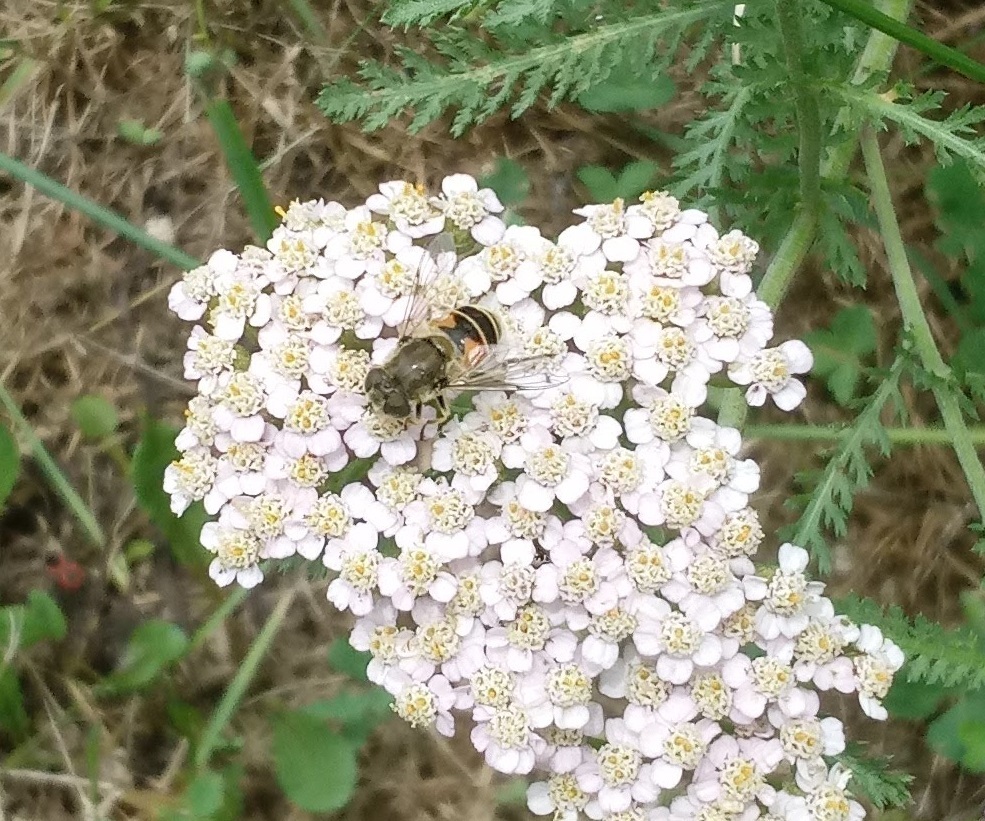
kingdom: Animalia
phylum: Arthropoda
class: Insecta
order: Diptera
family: Syrphidae
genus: Eristalis
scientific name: Eristalis arbustorum
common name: Hover fly
